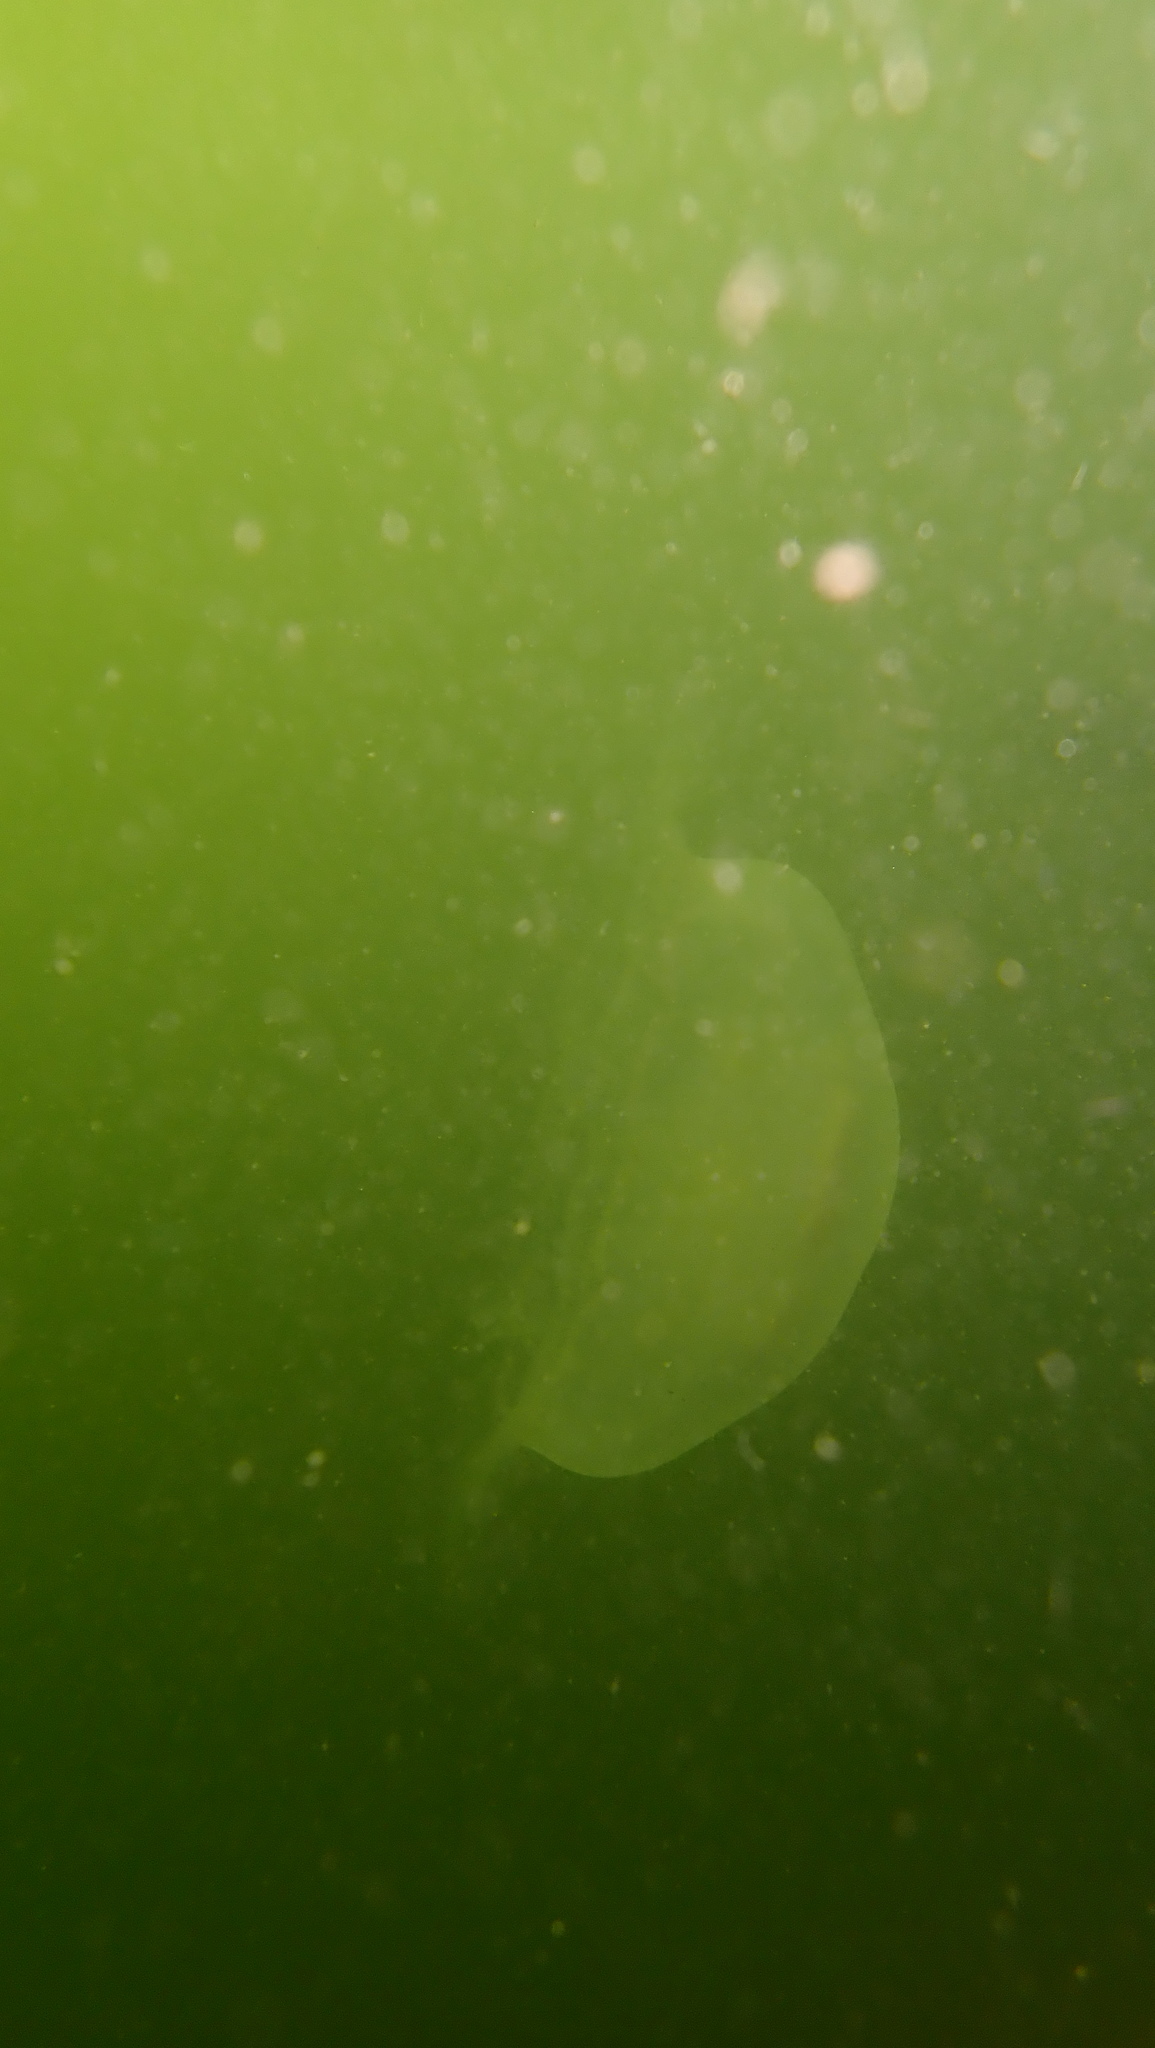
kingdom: Animalia
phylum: Cnidaria
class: Scyphozoa
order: Semaeostomeae
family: Ulmaridae
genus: Aurelia
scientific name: Aurelia aurita
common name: Moon jellyfish
